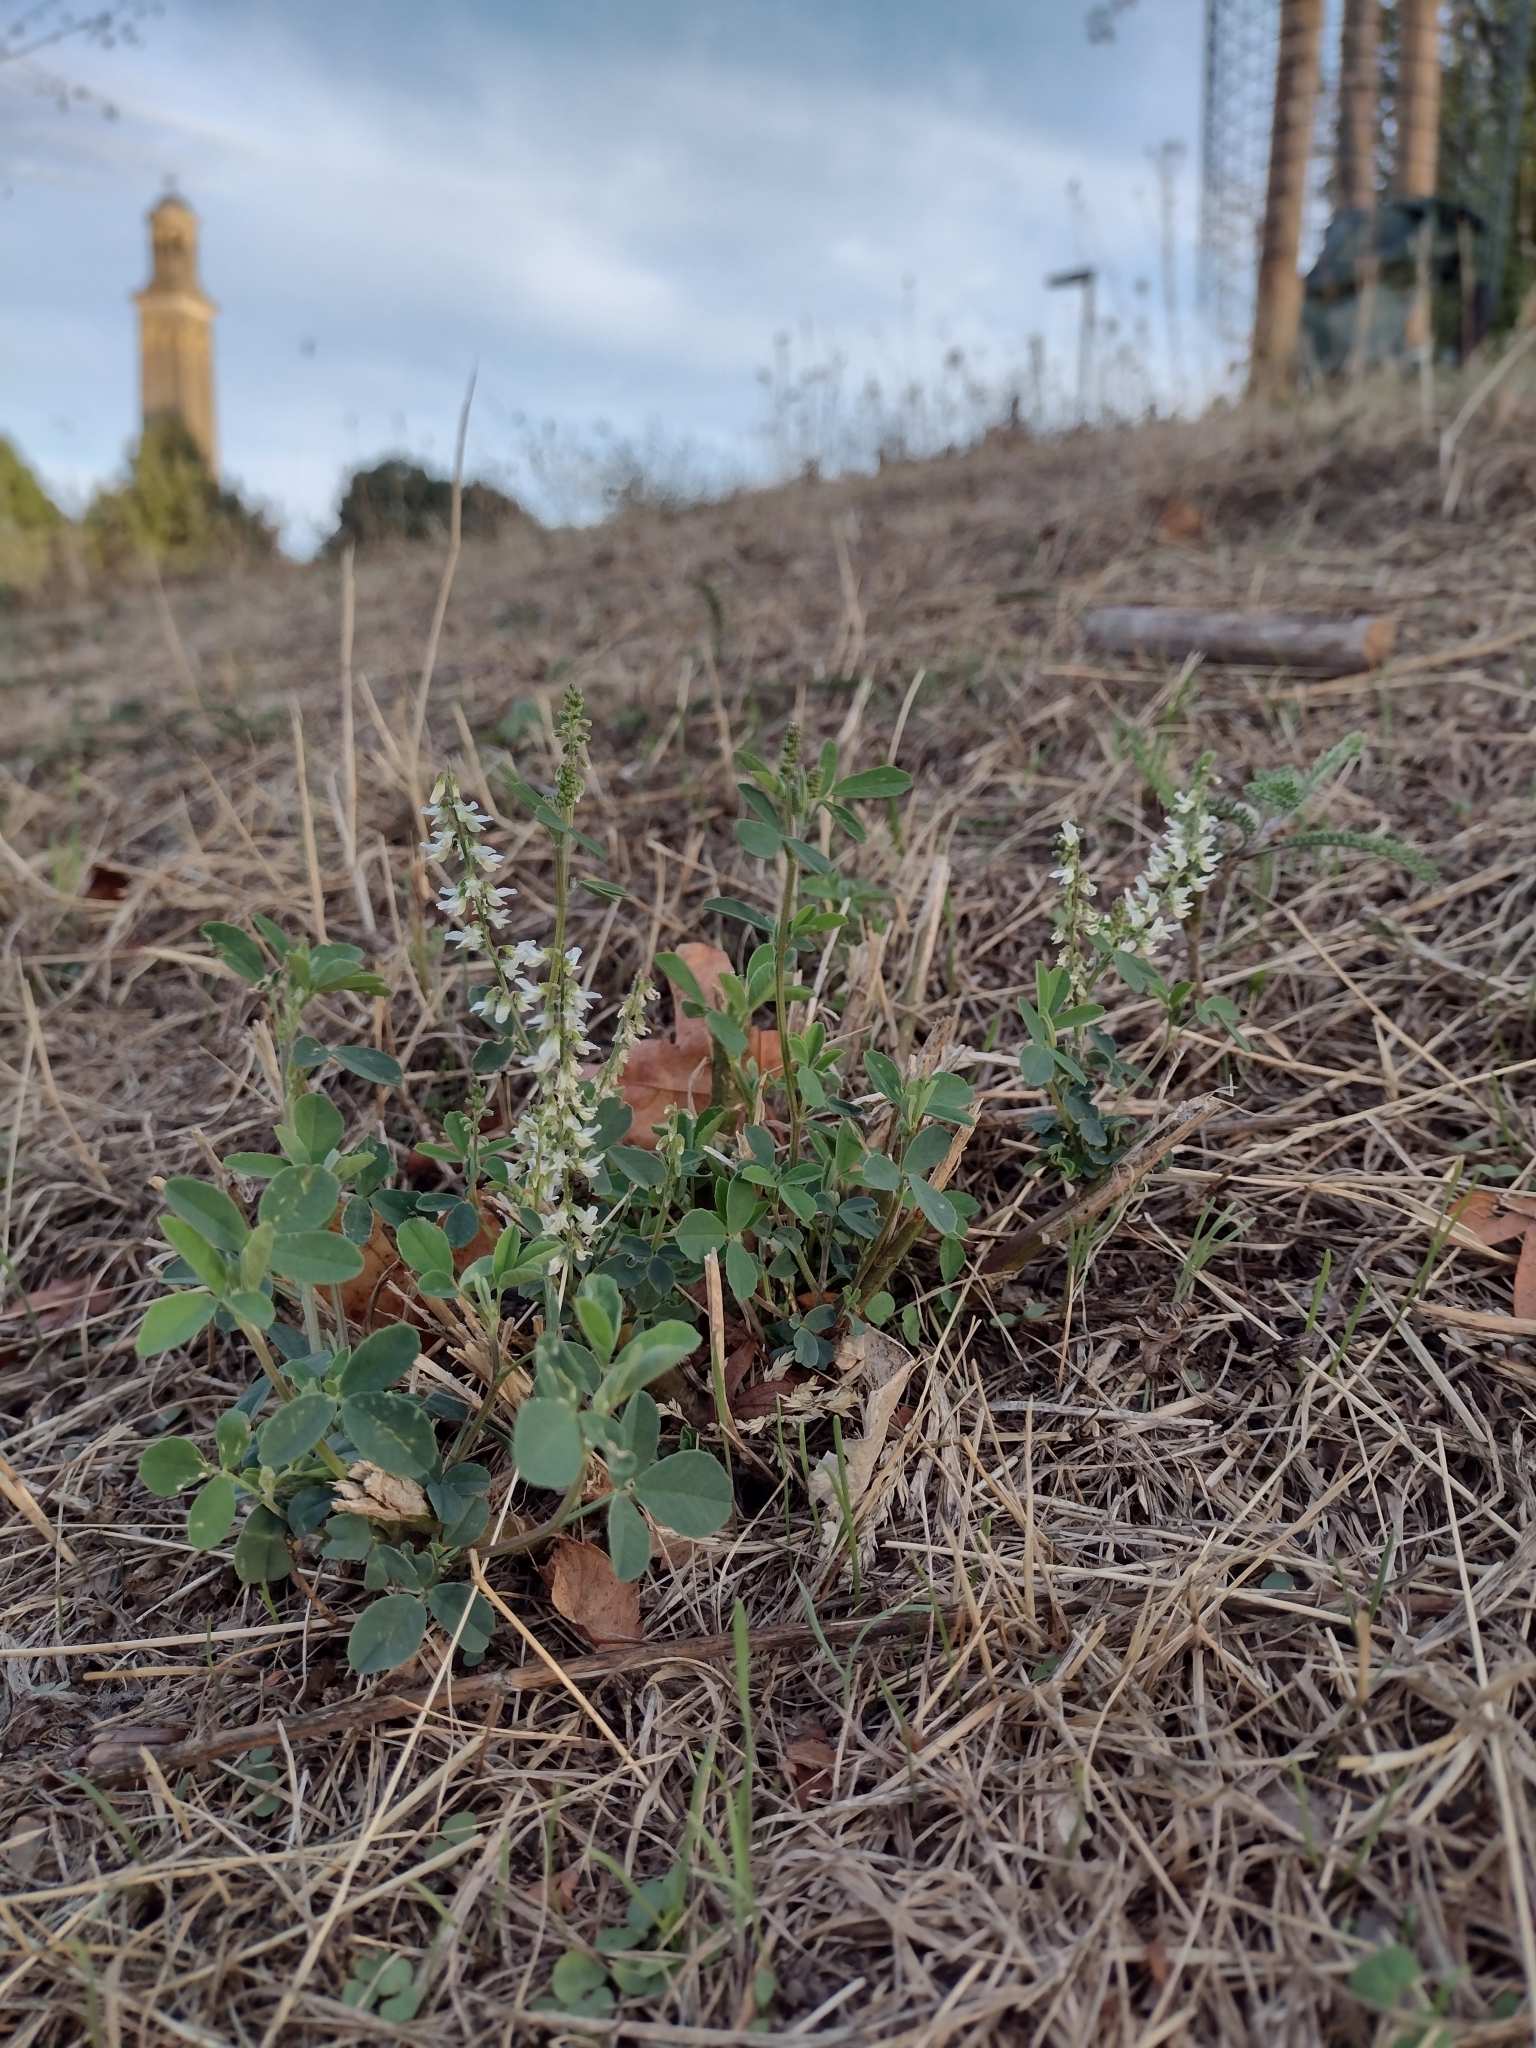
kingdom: Plantae
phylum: Tracheophyta
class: Magnoliopsida
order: Fabales
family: Fabaceae
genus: Melilotus
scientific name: Melilotus albus
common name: White melilot
